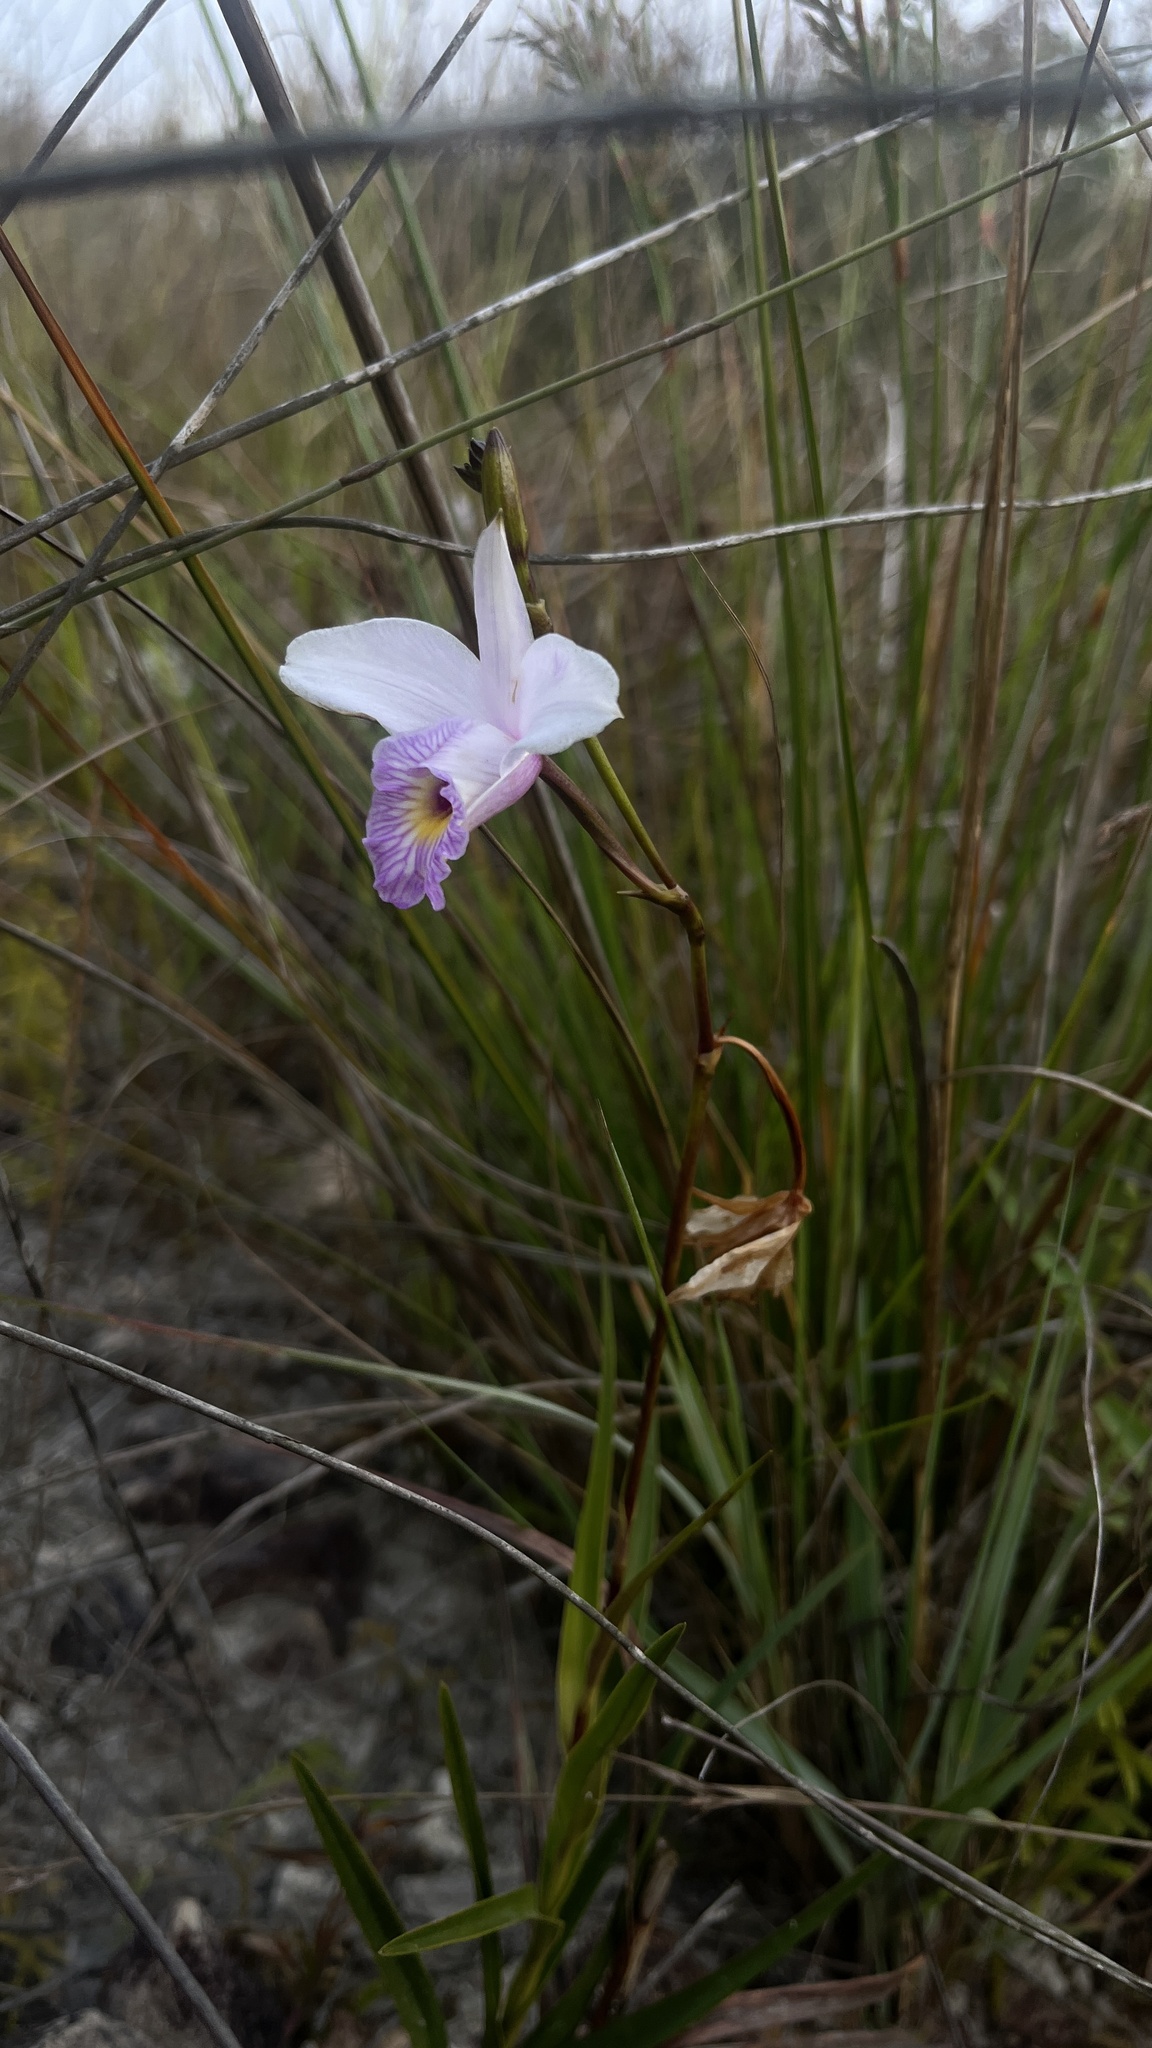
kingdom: Plantae
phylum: Tracheophyta
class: Liliopsida
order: Asparagales
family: Orchidaceae
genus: Arundina
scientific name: Arundina graminifolia
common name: Bamboo orchid
